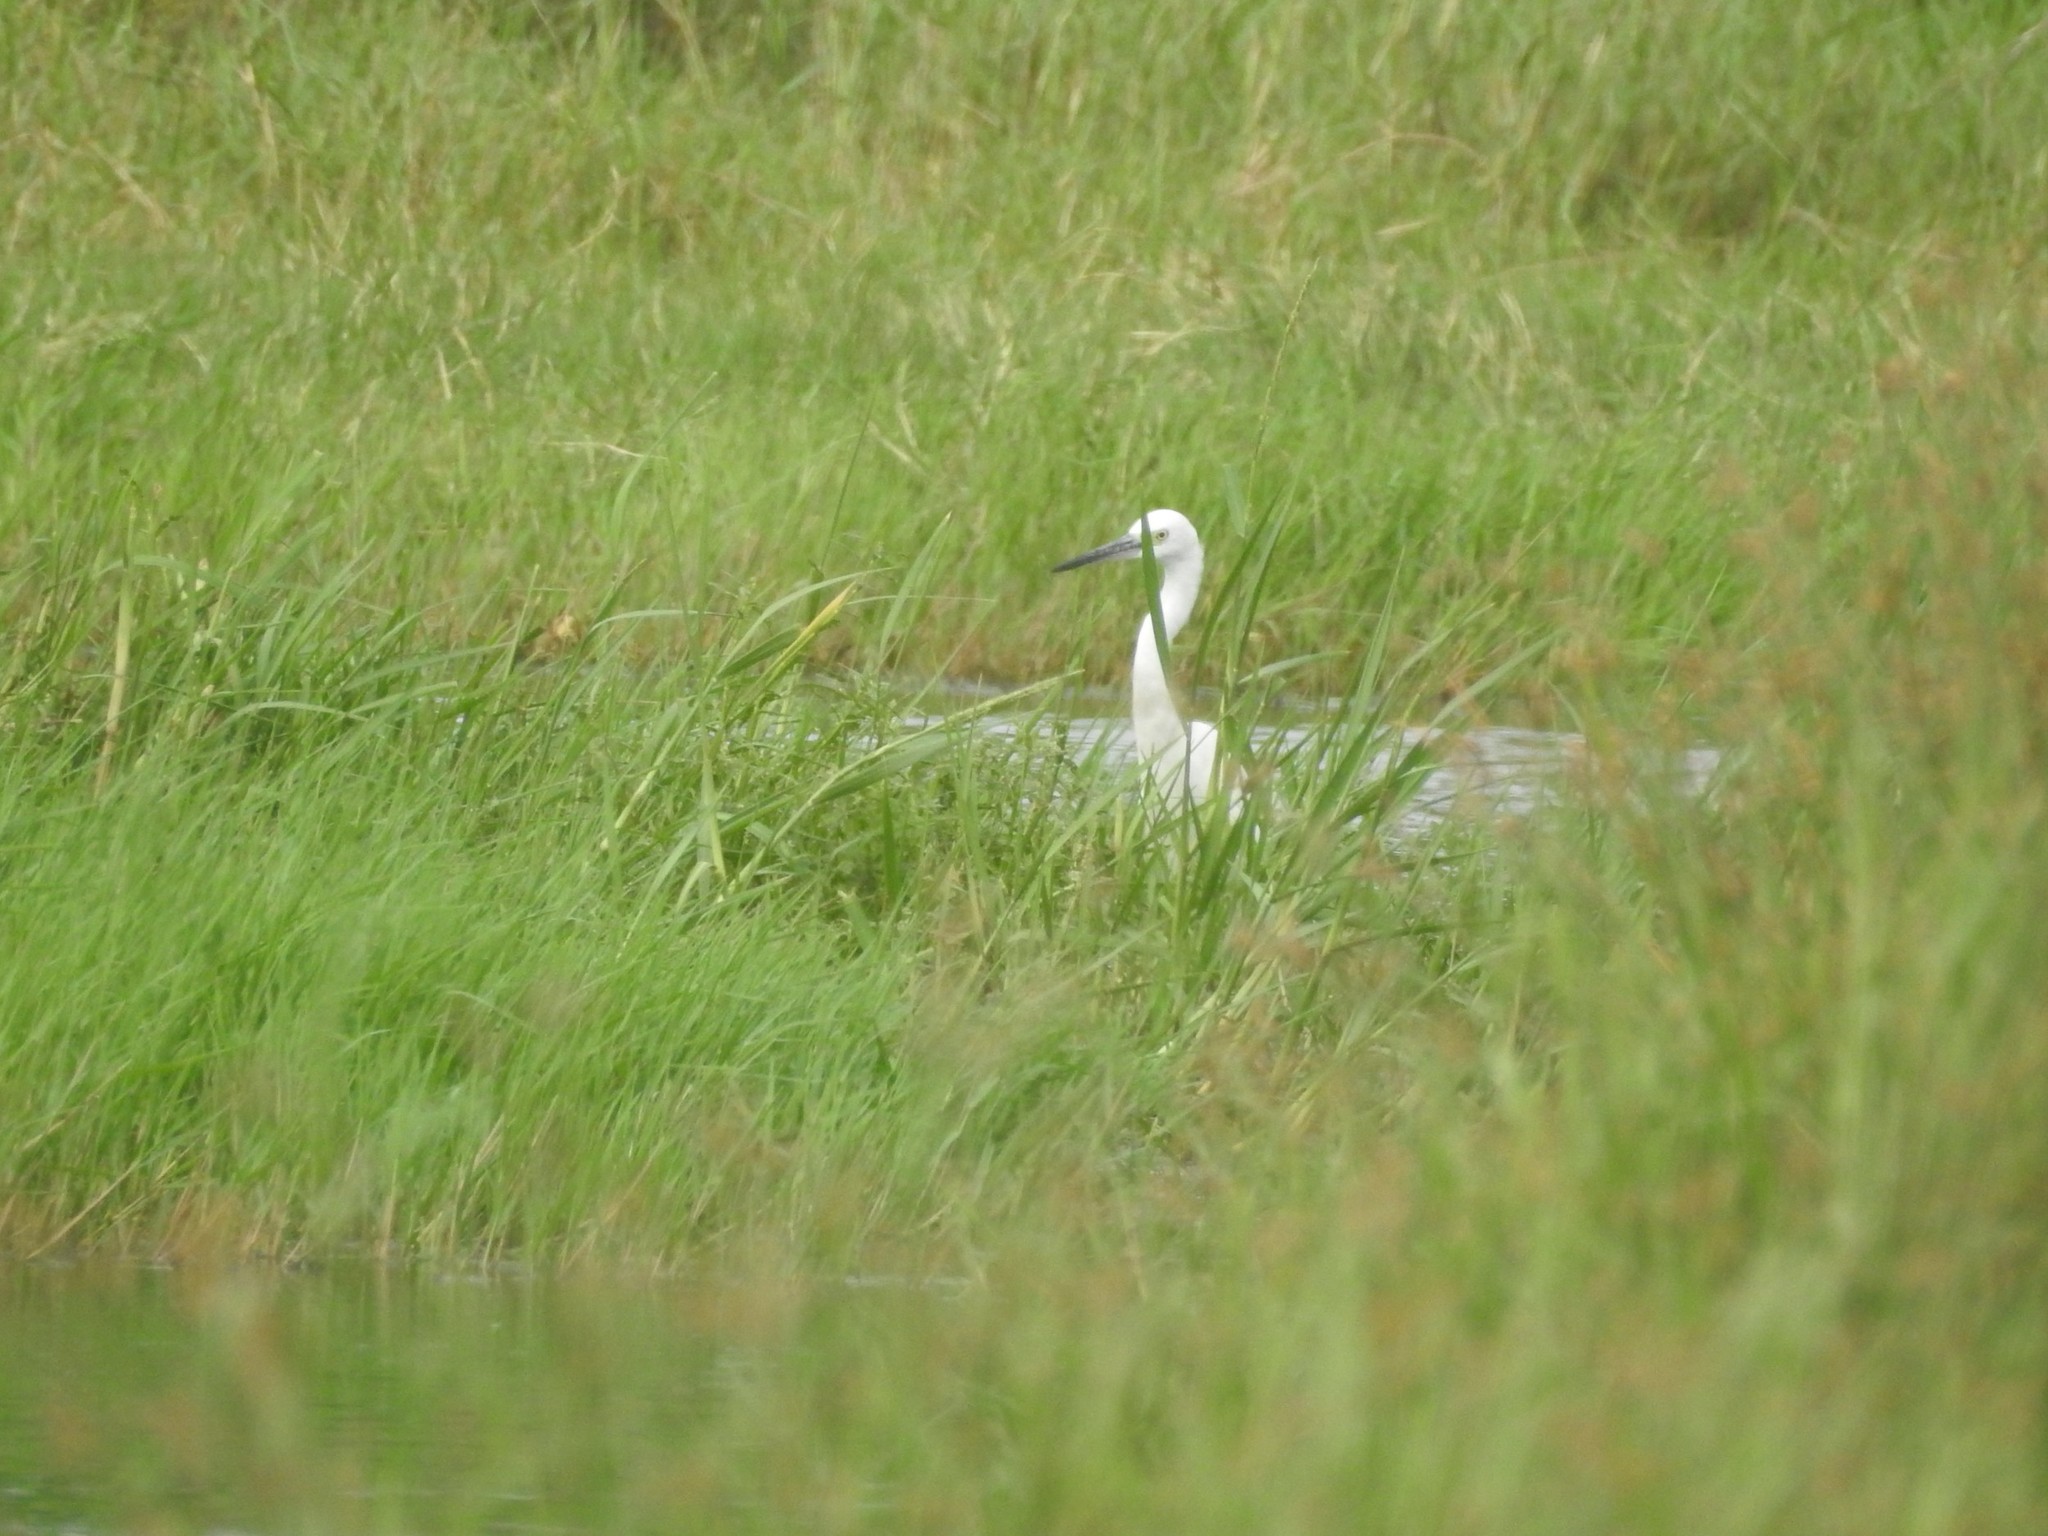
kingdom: Animalia
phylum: Chordata
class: Aves
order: Pelecaniformes
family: Ardeidae
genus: Egretta
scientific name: Egretta garzetta
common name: Little egret
